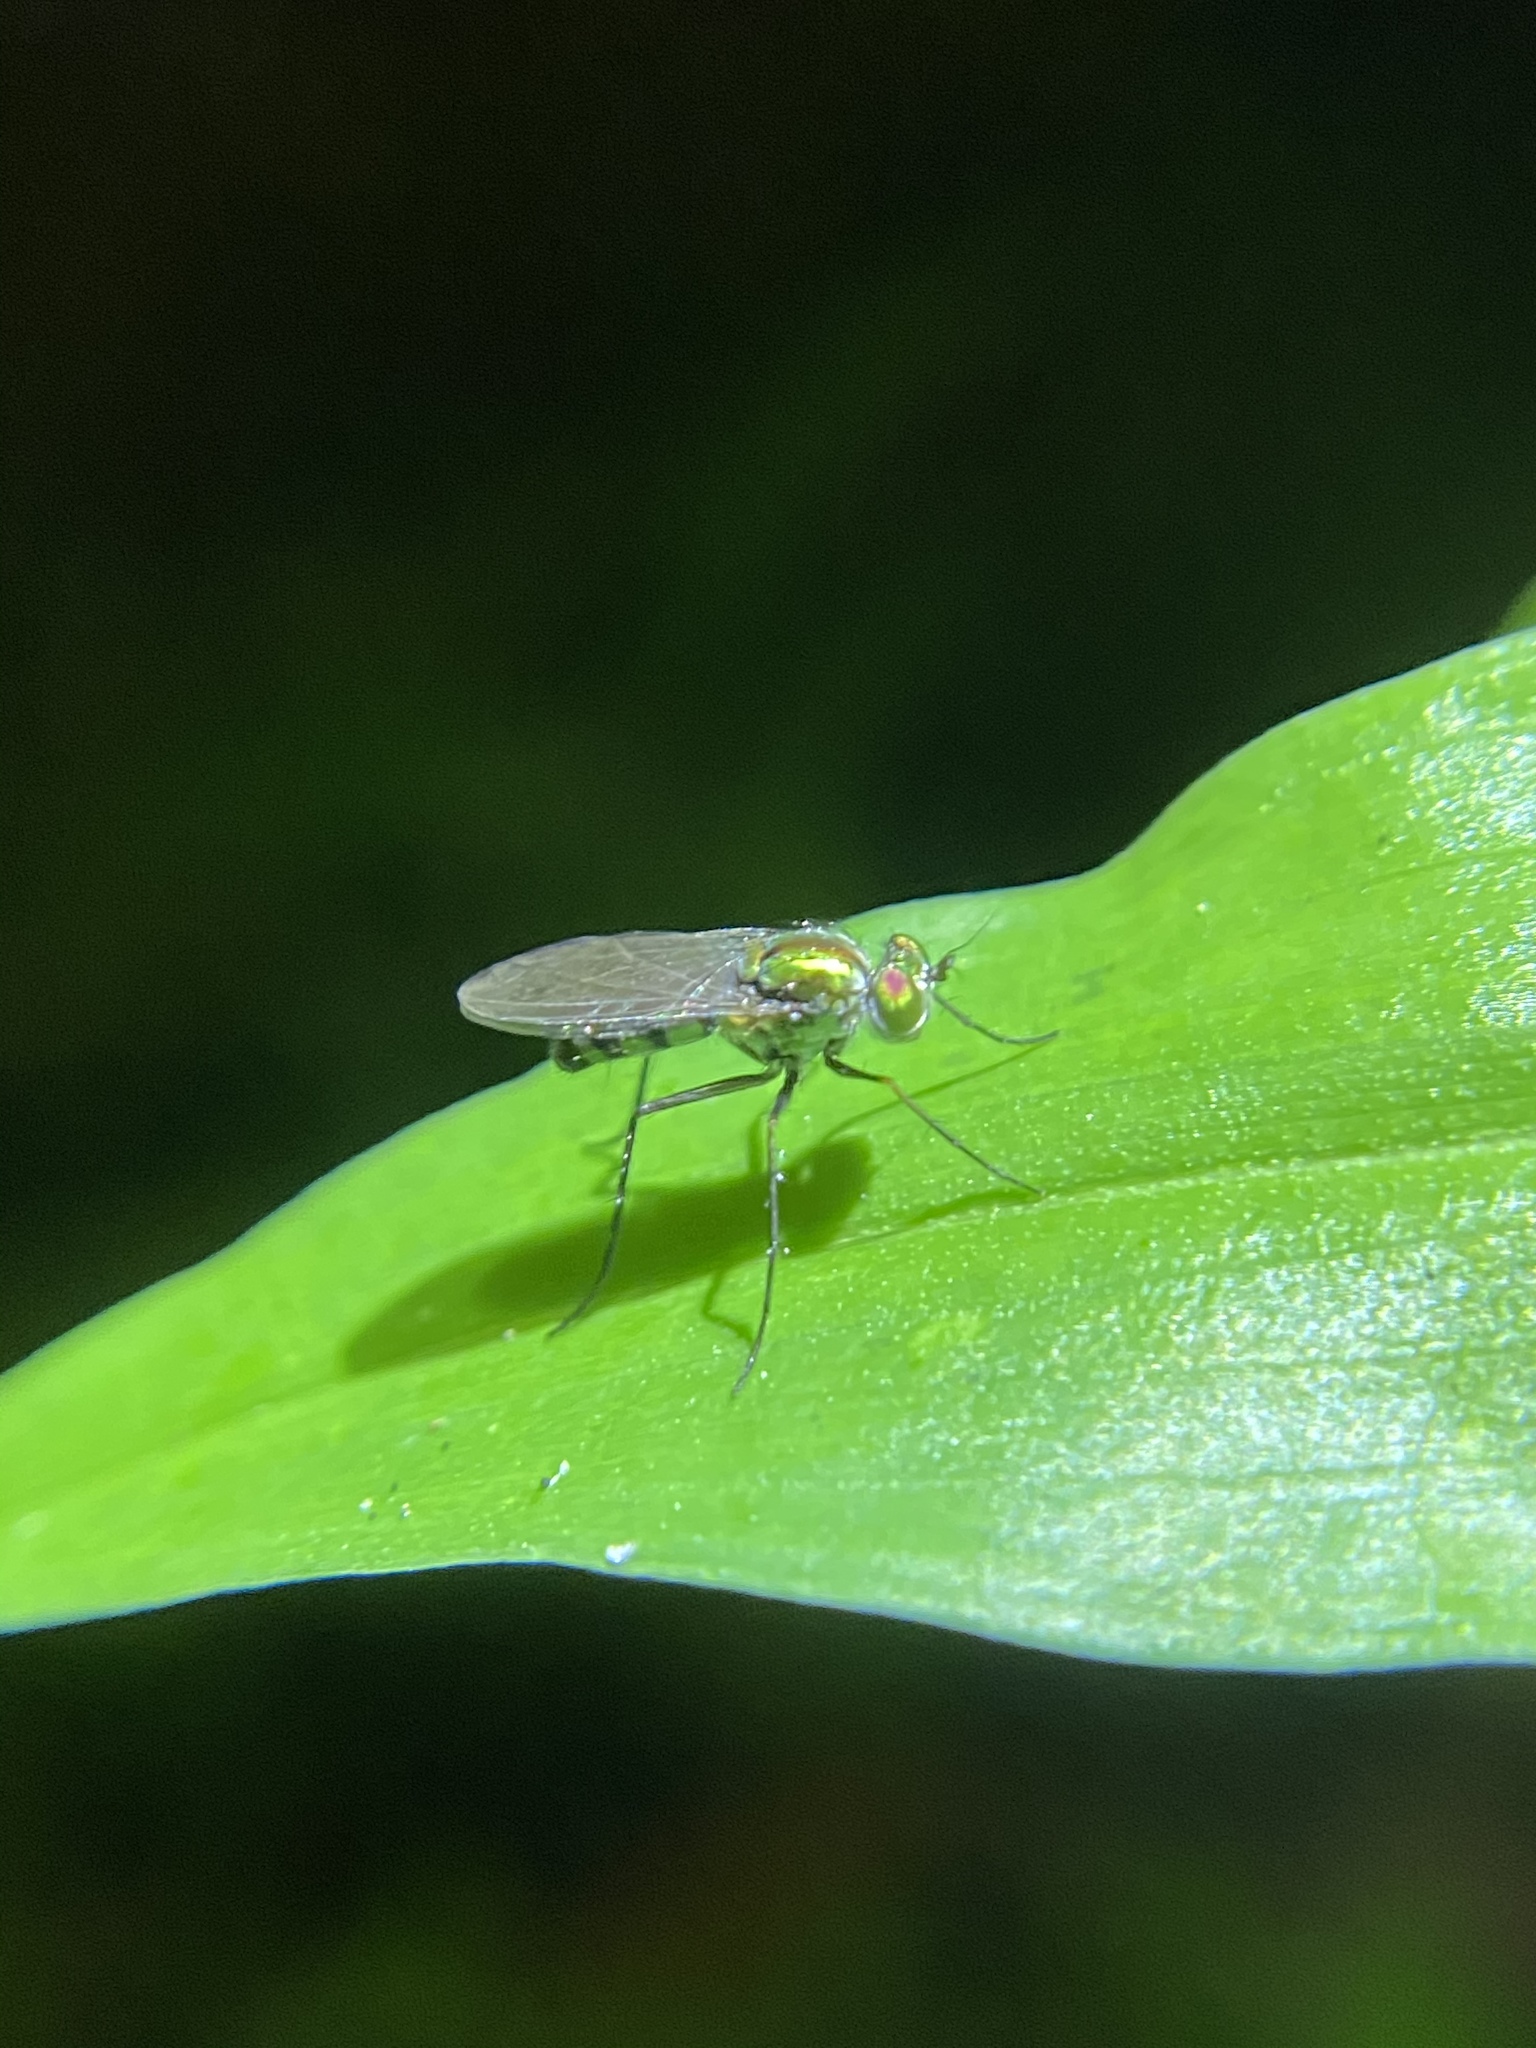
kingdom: Animalia
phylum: Arthropoda
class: Insecta
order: Diptera
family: Dolichopodidae
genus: Plagioneurus
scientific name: Plagioneurus univittatus
